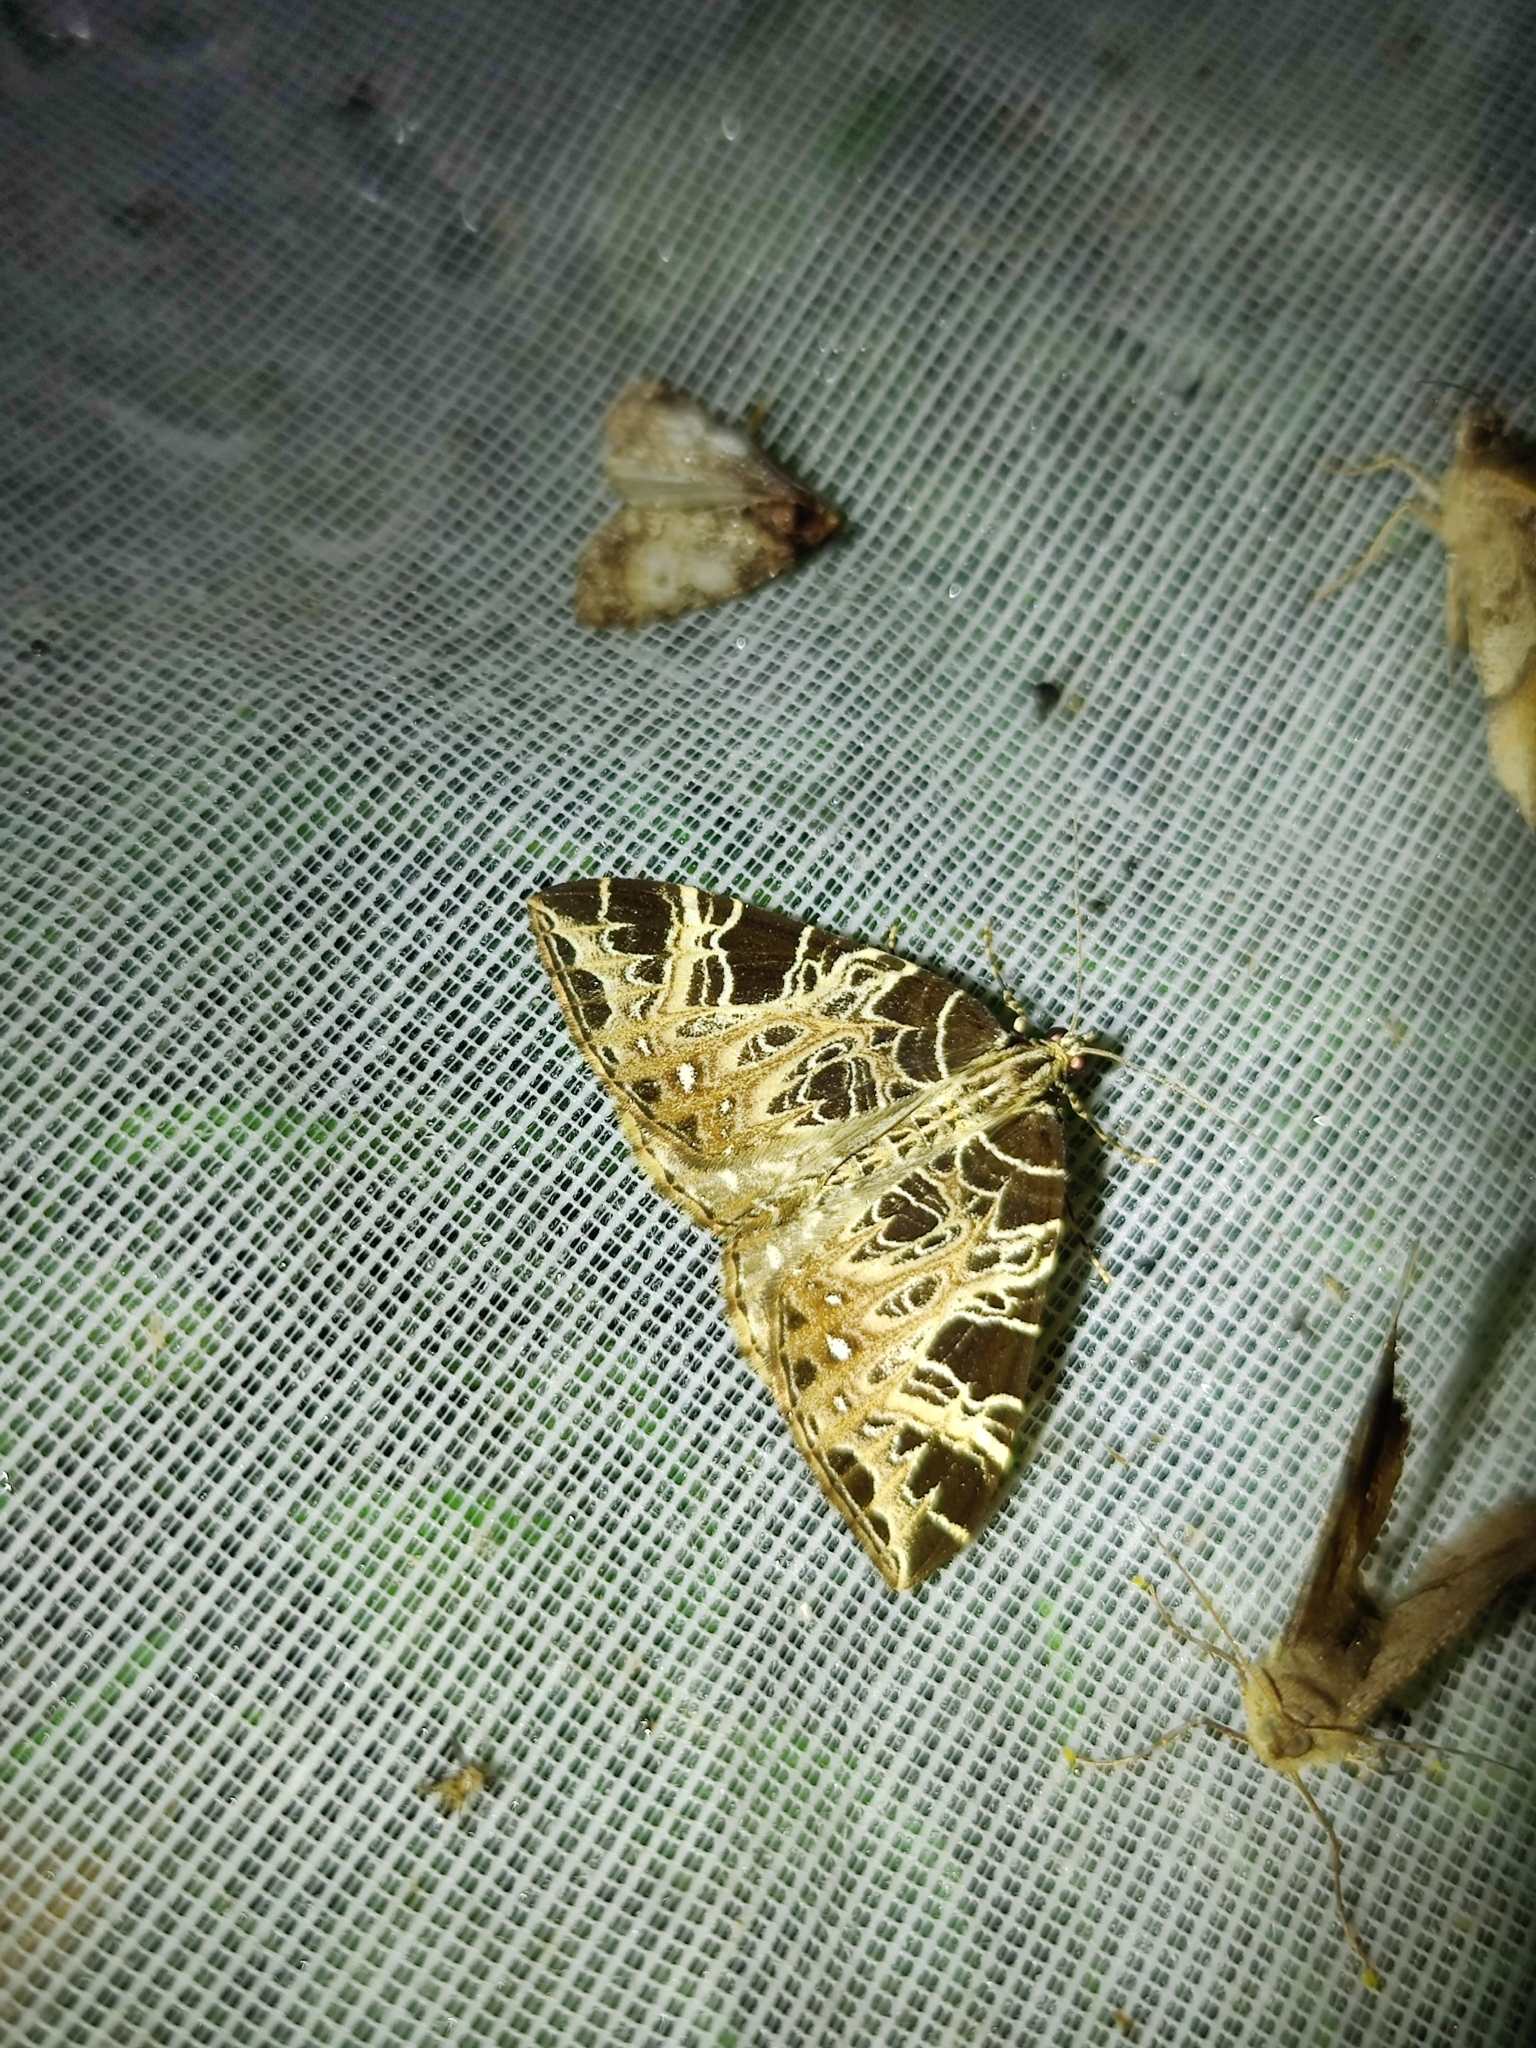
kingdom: Animalia
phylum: Arthropoda
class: Insecta
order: Lepidoptera
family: Geometridae
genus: Eustroma
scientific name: Eustroma hampsoni
